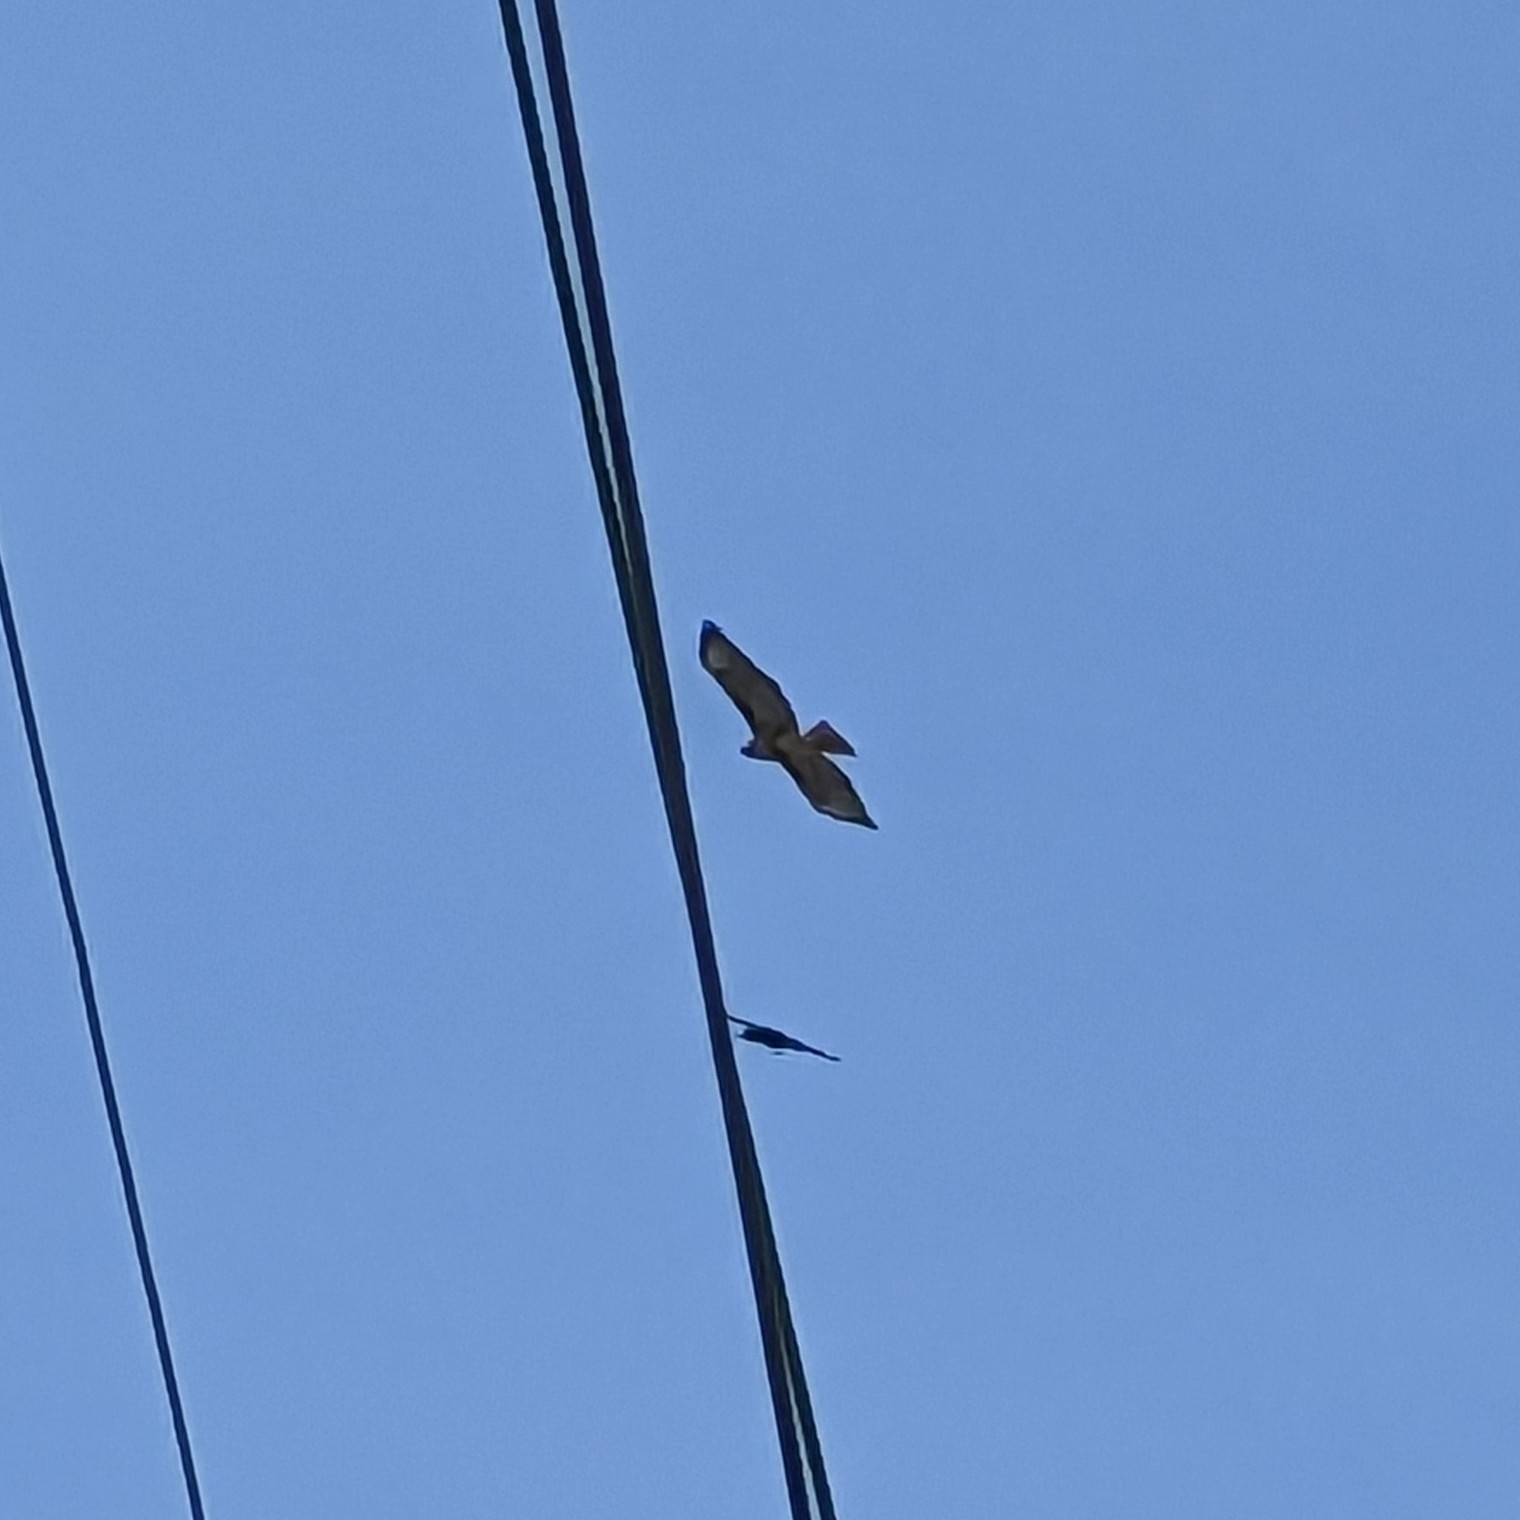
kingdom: Animalia
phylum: Chordata
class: Aves
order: Accipitriformes
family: Accipitridae
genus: Buteo
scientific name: Buteo jamaicensis
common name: Red-tailed hawk
